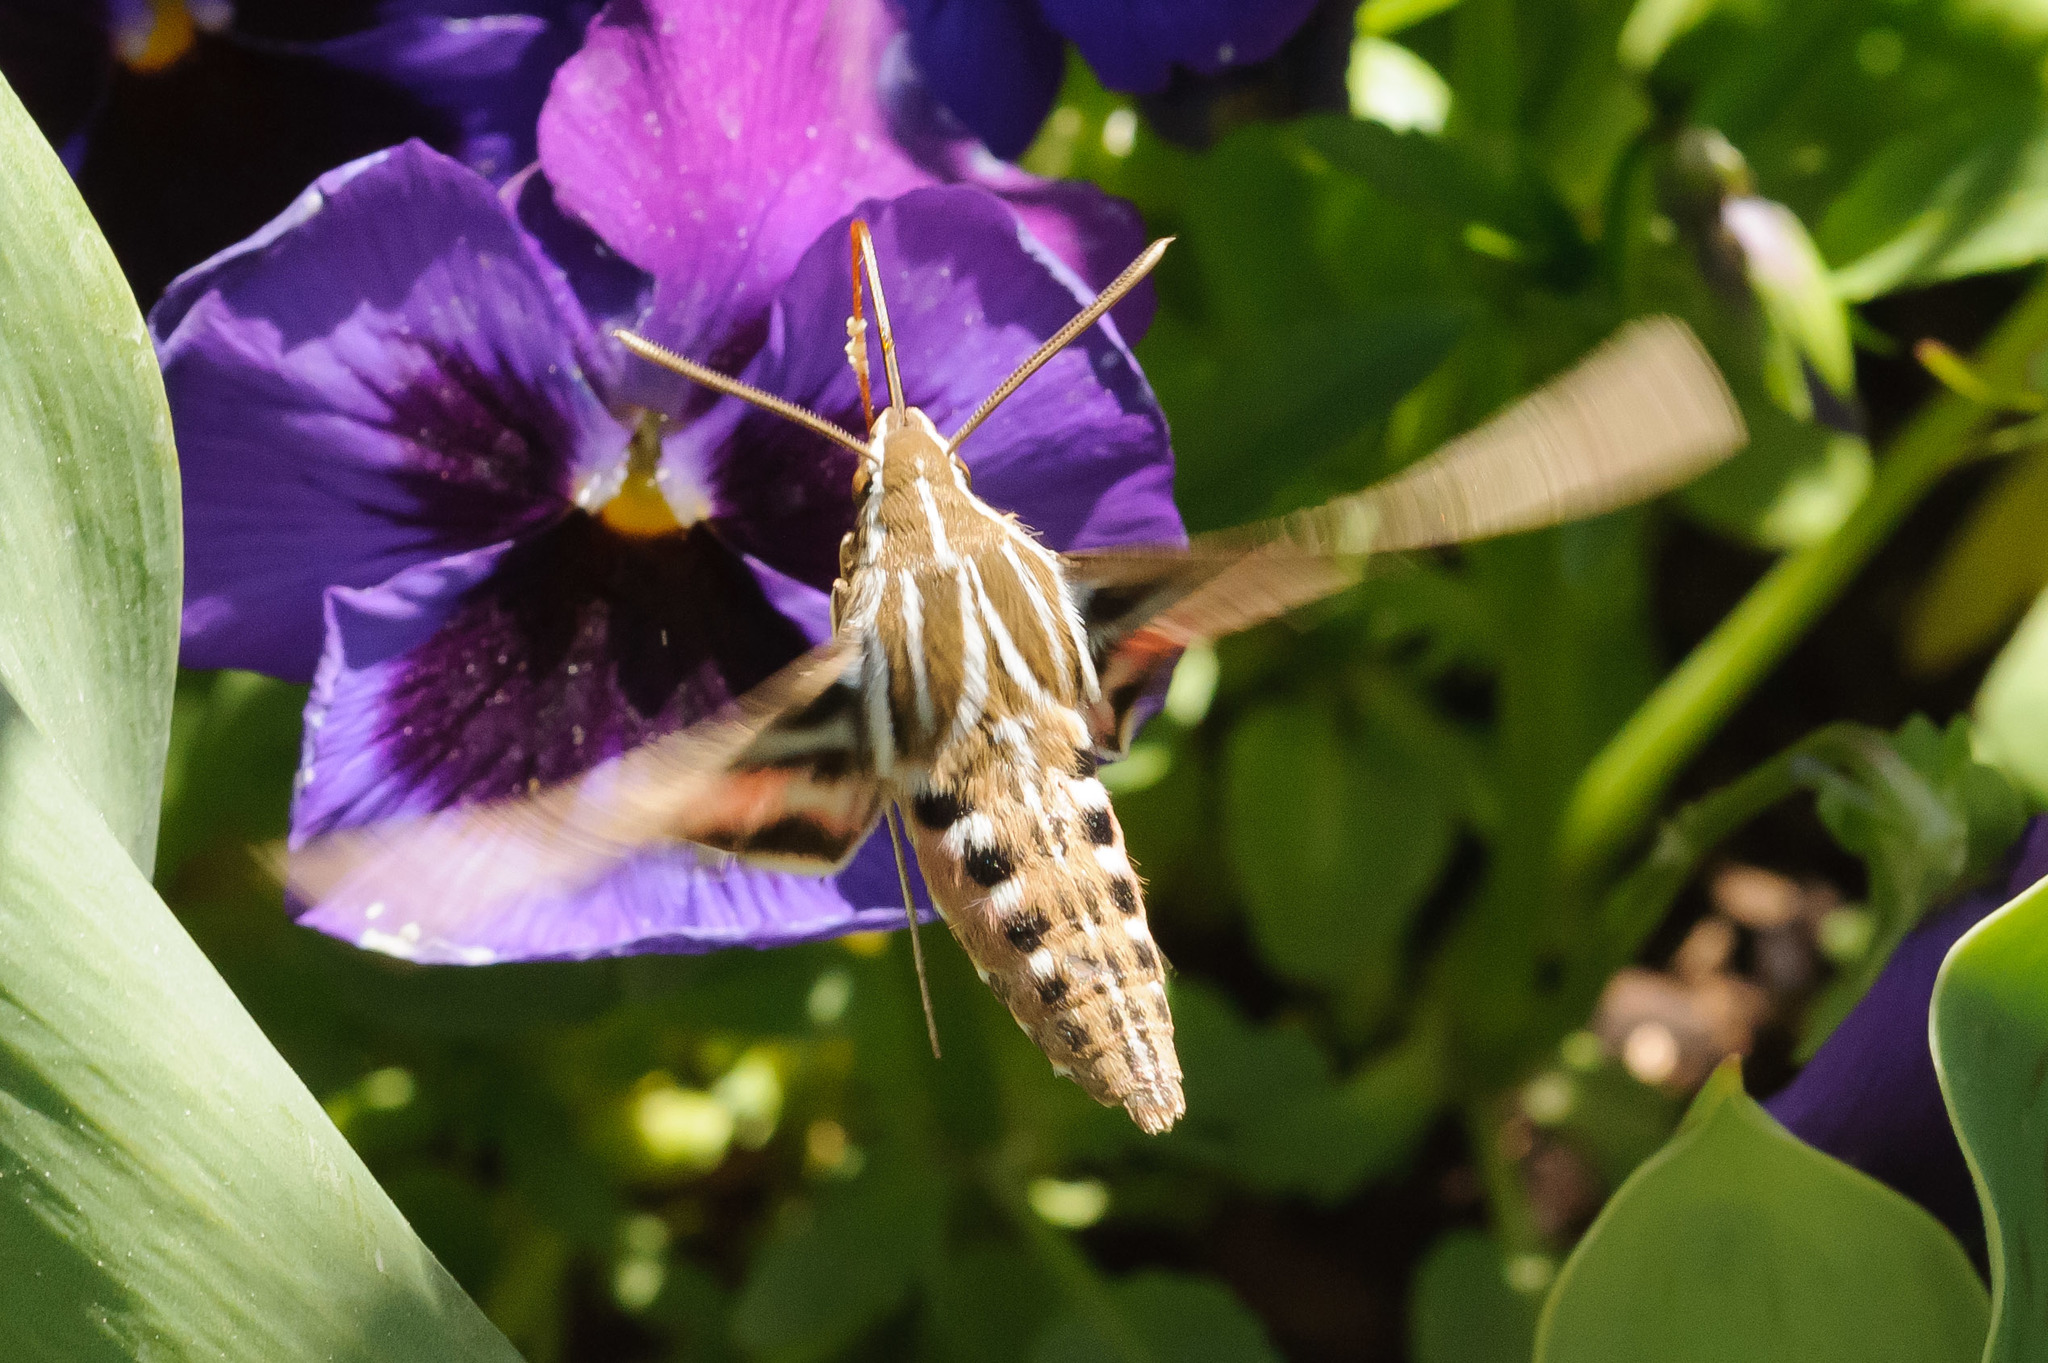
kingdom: Animalia
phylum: Arthropoda
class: Insecta
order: Lepidoptera
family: Sphingidae
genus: Hyles
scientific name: Hyles lineata
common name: White-lined sphinx
